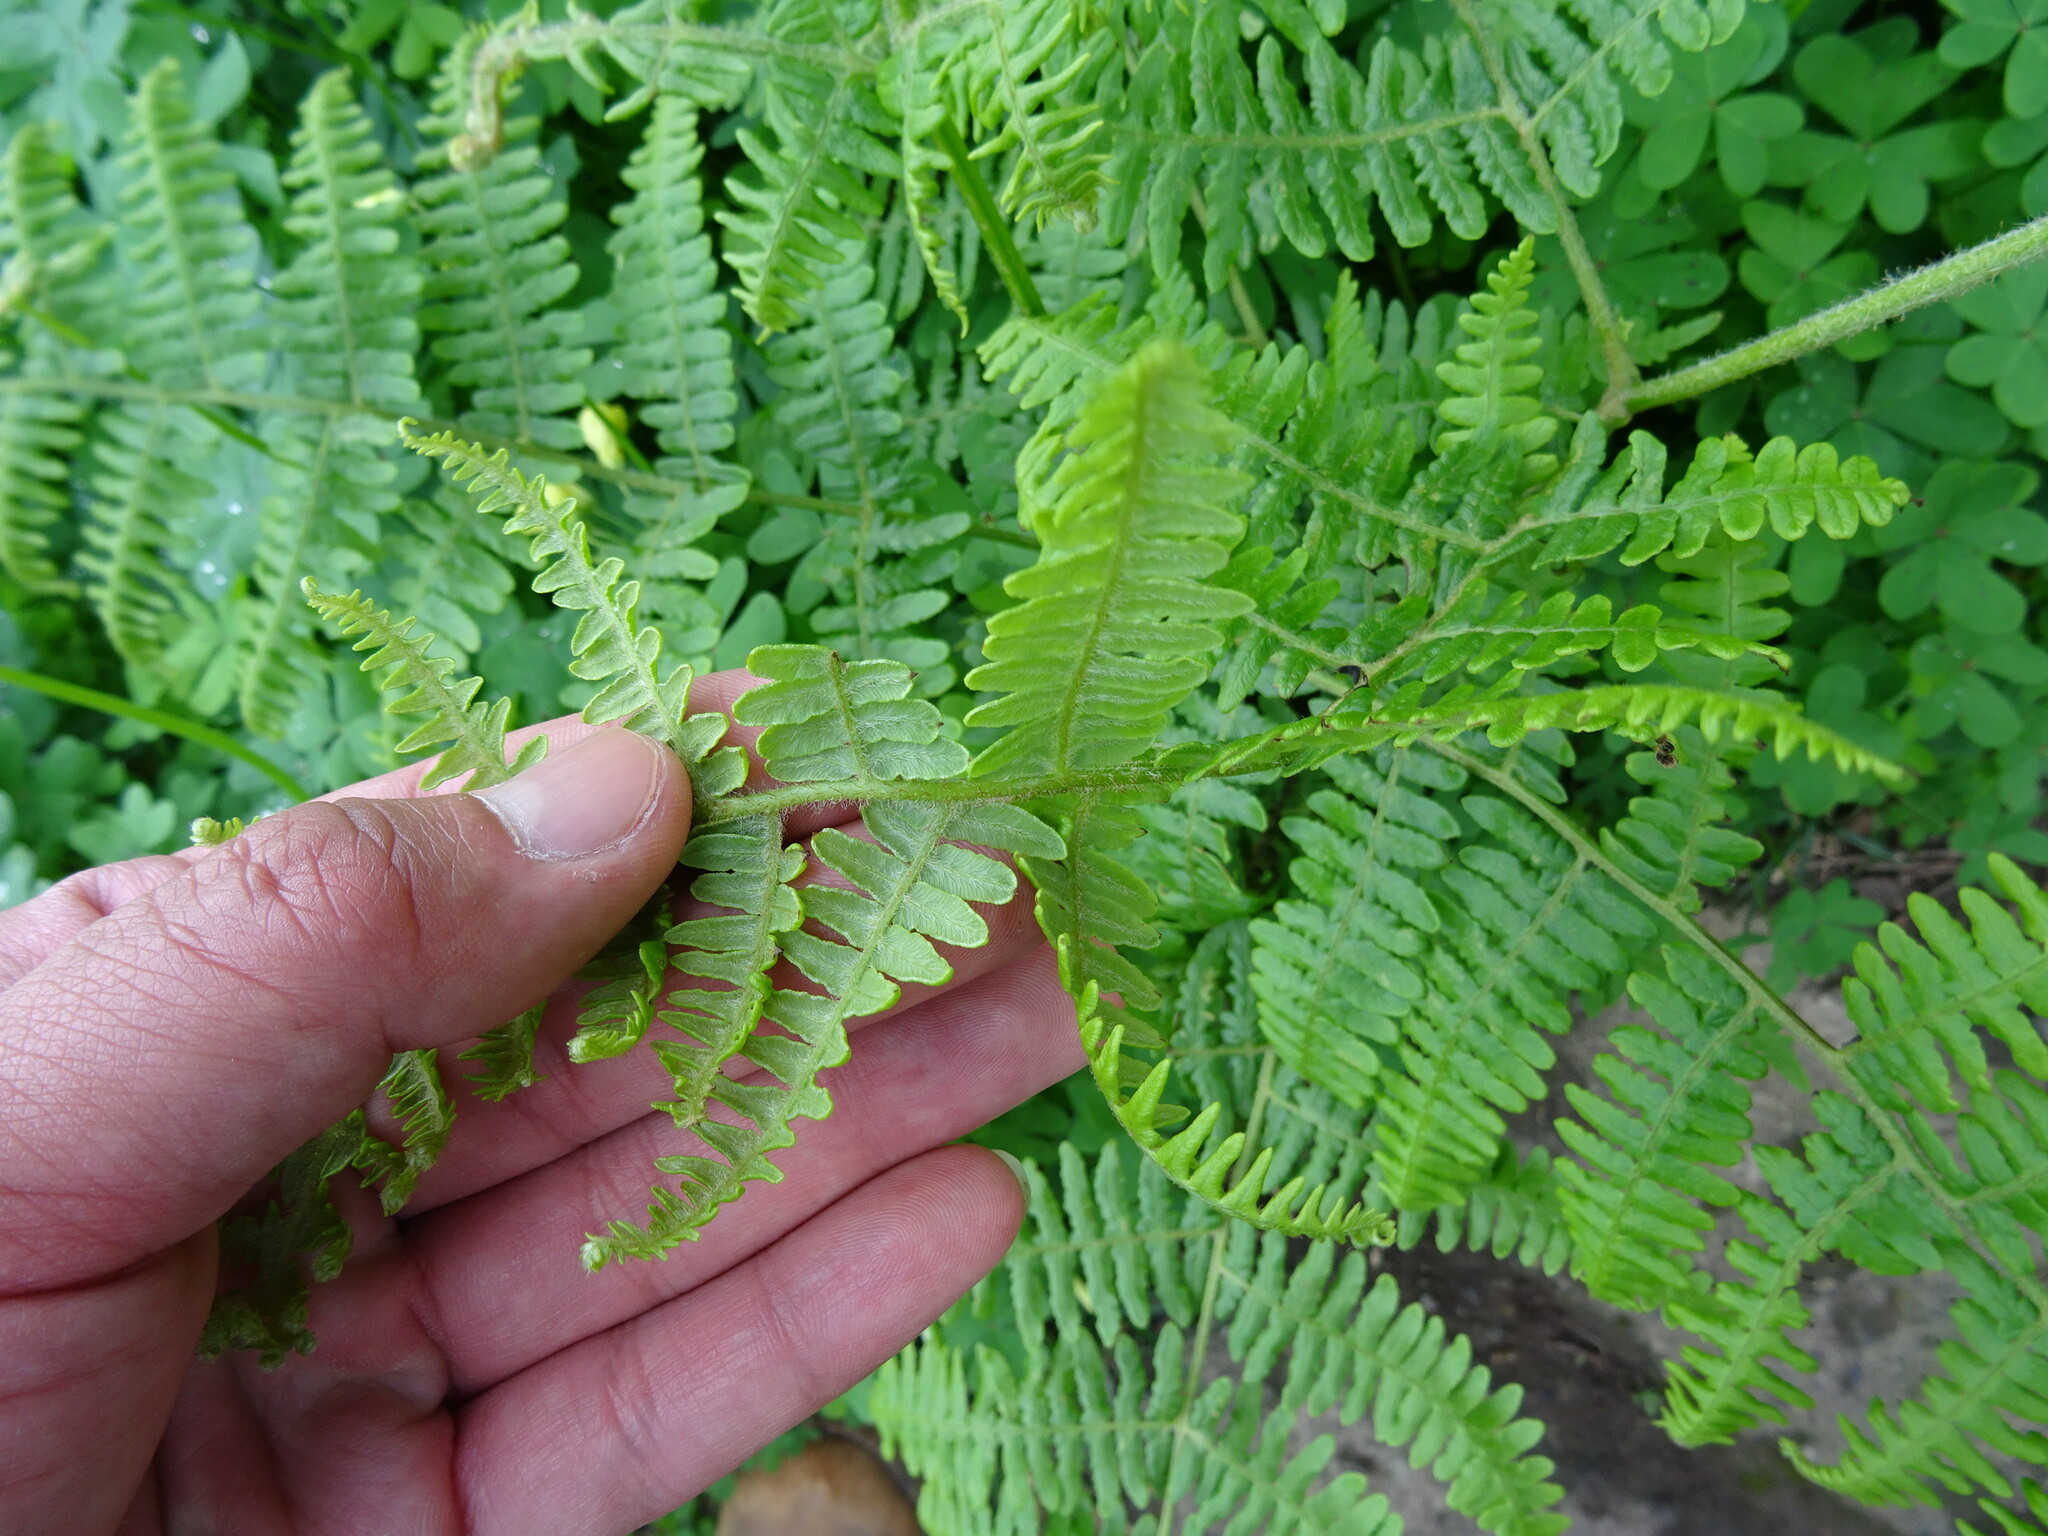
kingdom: Plantae
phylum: Tracheophyta
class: Polypodiopsida
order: Polypodiales
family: Dennstaedtiaceae
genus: Pteridium
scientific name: Pteridium aquilinum
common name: Bracken
